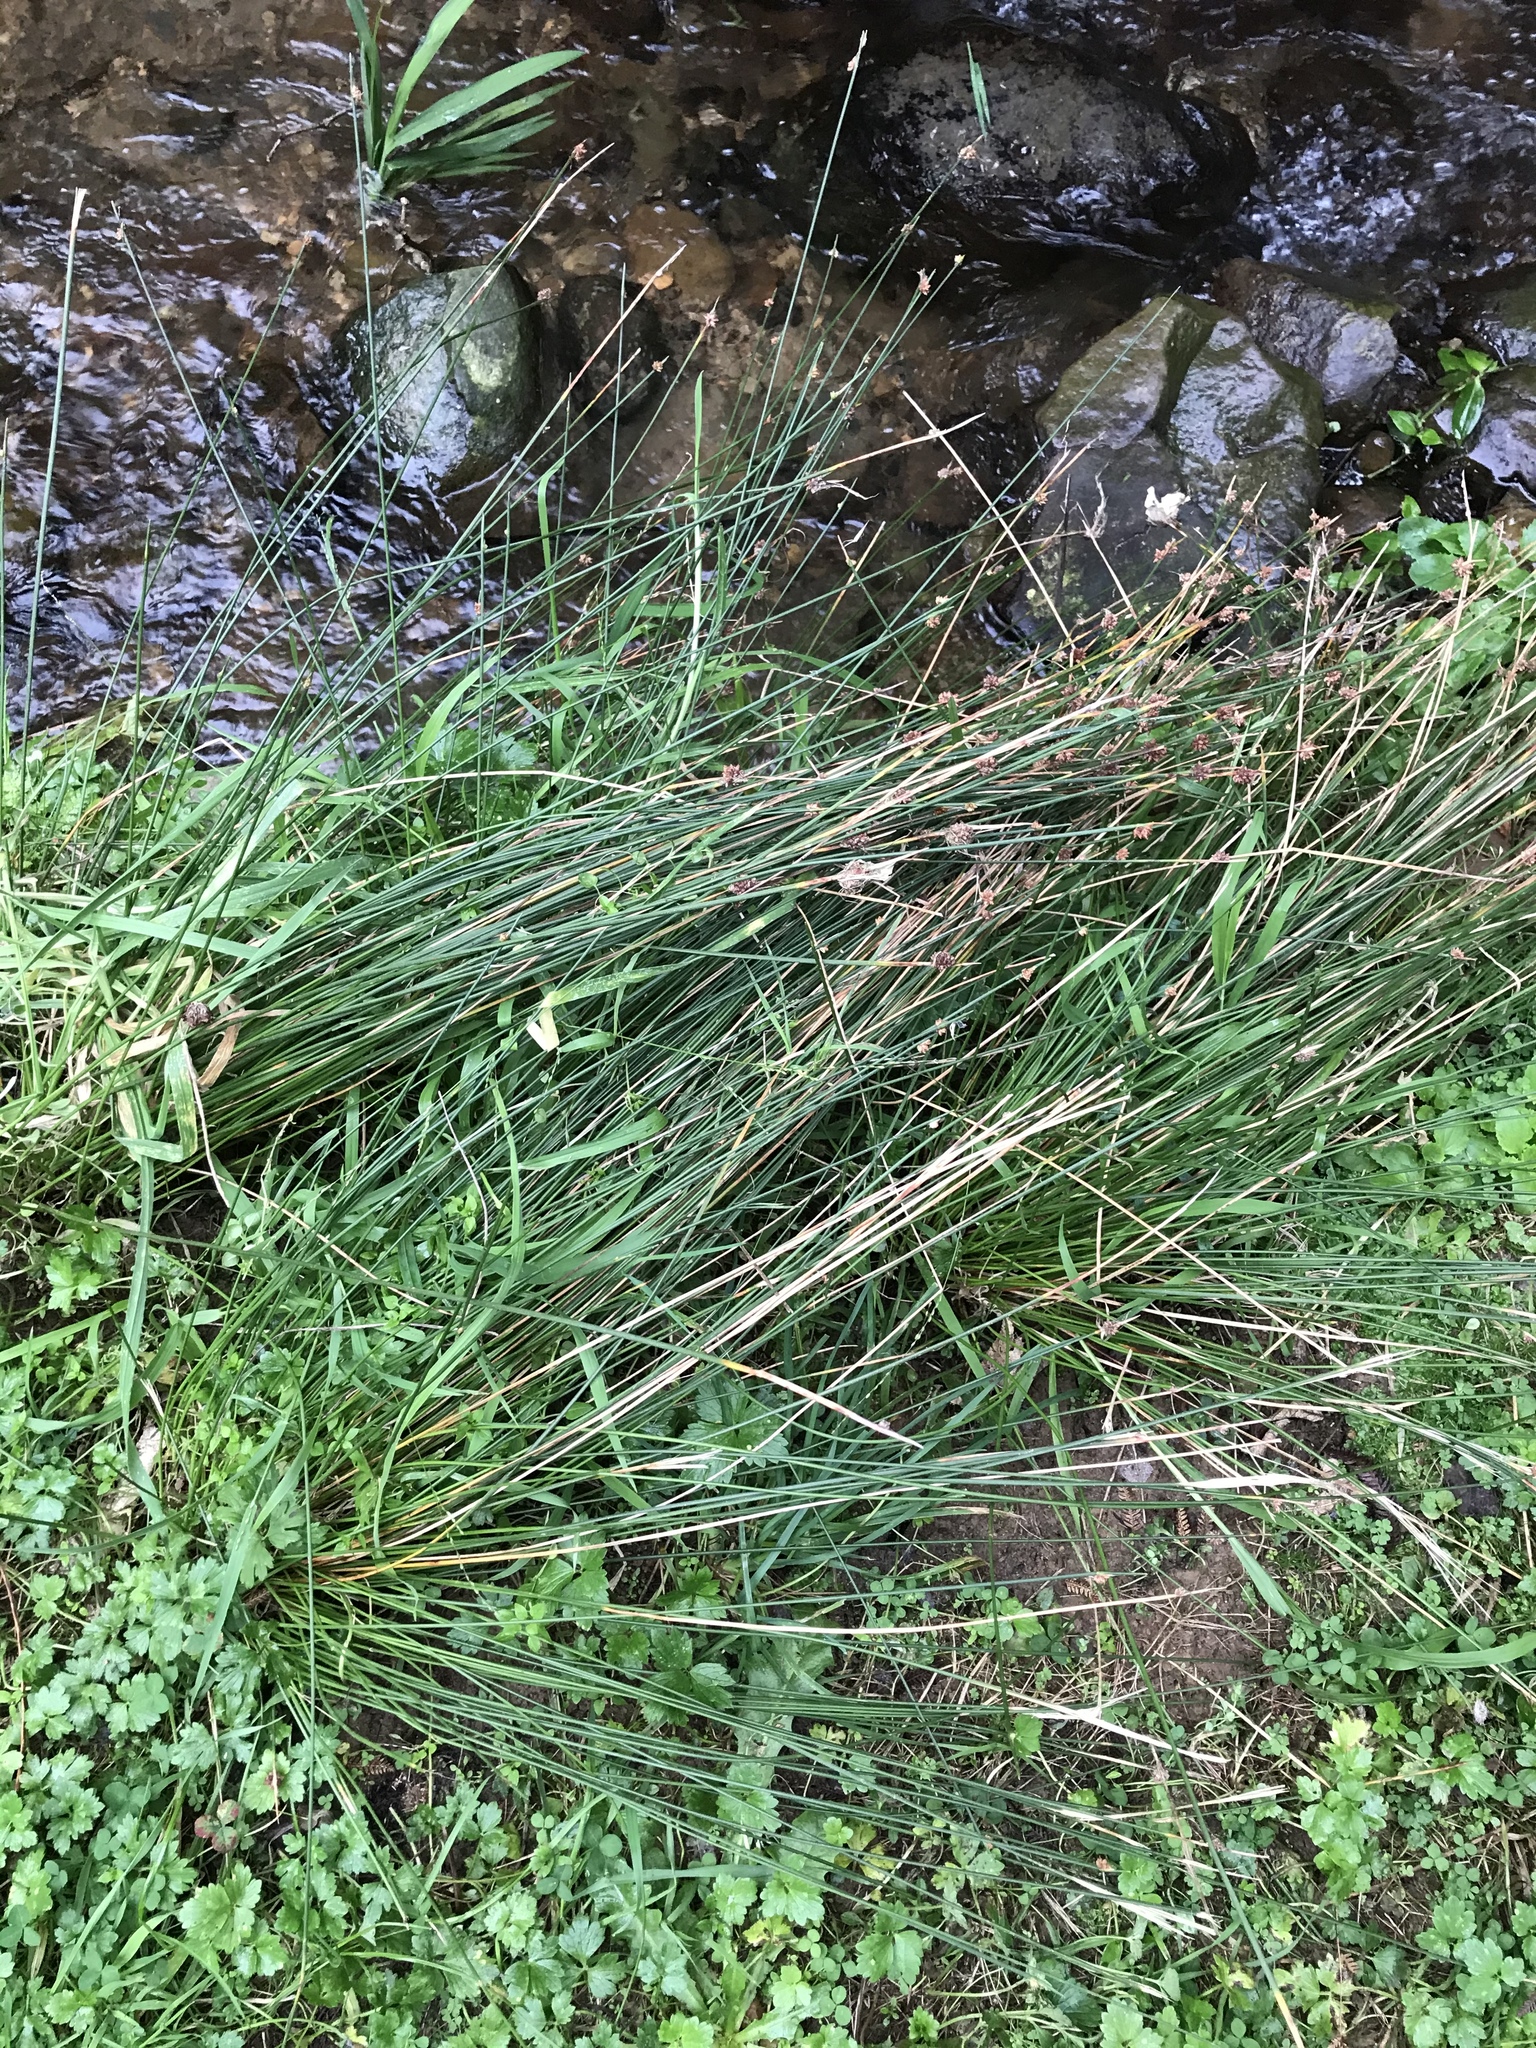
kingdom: Plantae
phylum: Tracheophyta
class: Liliopsida
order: Poales
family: Cyperaceae
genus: Ficinia
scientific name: Ficinia nodosa
